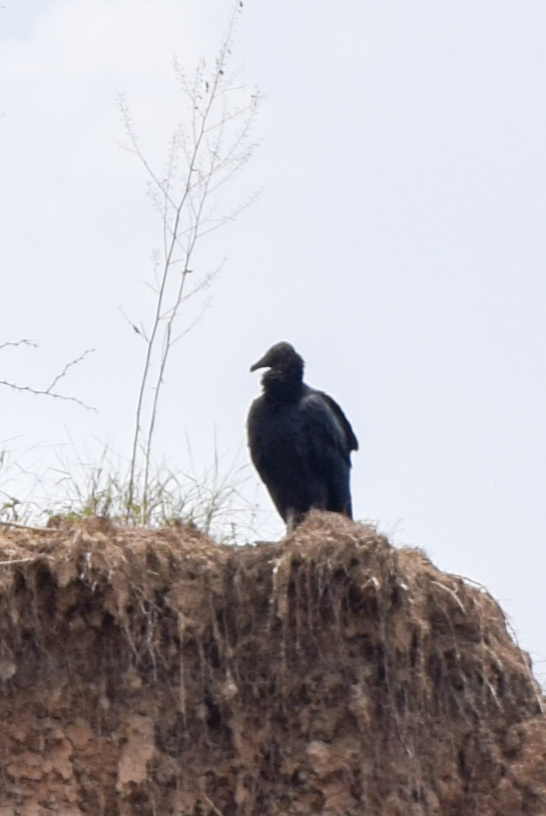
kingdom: Animalia
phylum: Chordata
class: Aves
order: Accipitriformes
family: Cathartidae
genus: Coragyps
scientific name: Coragyps atratus
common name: Black vulture
